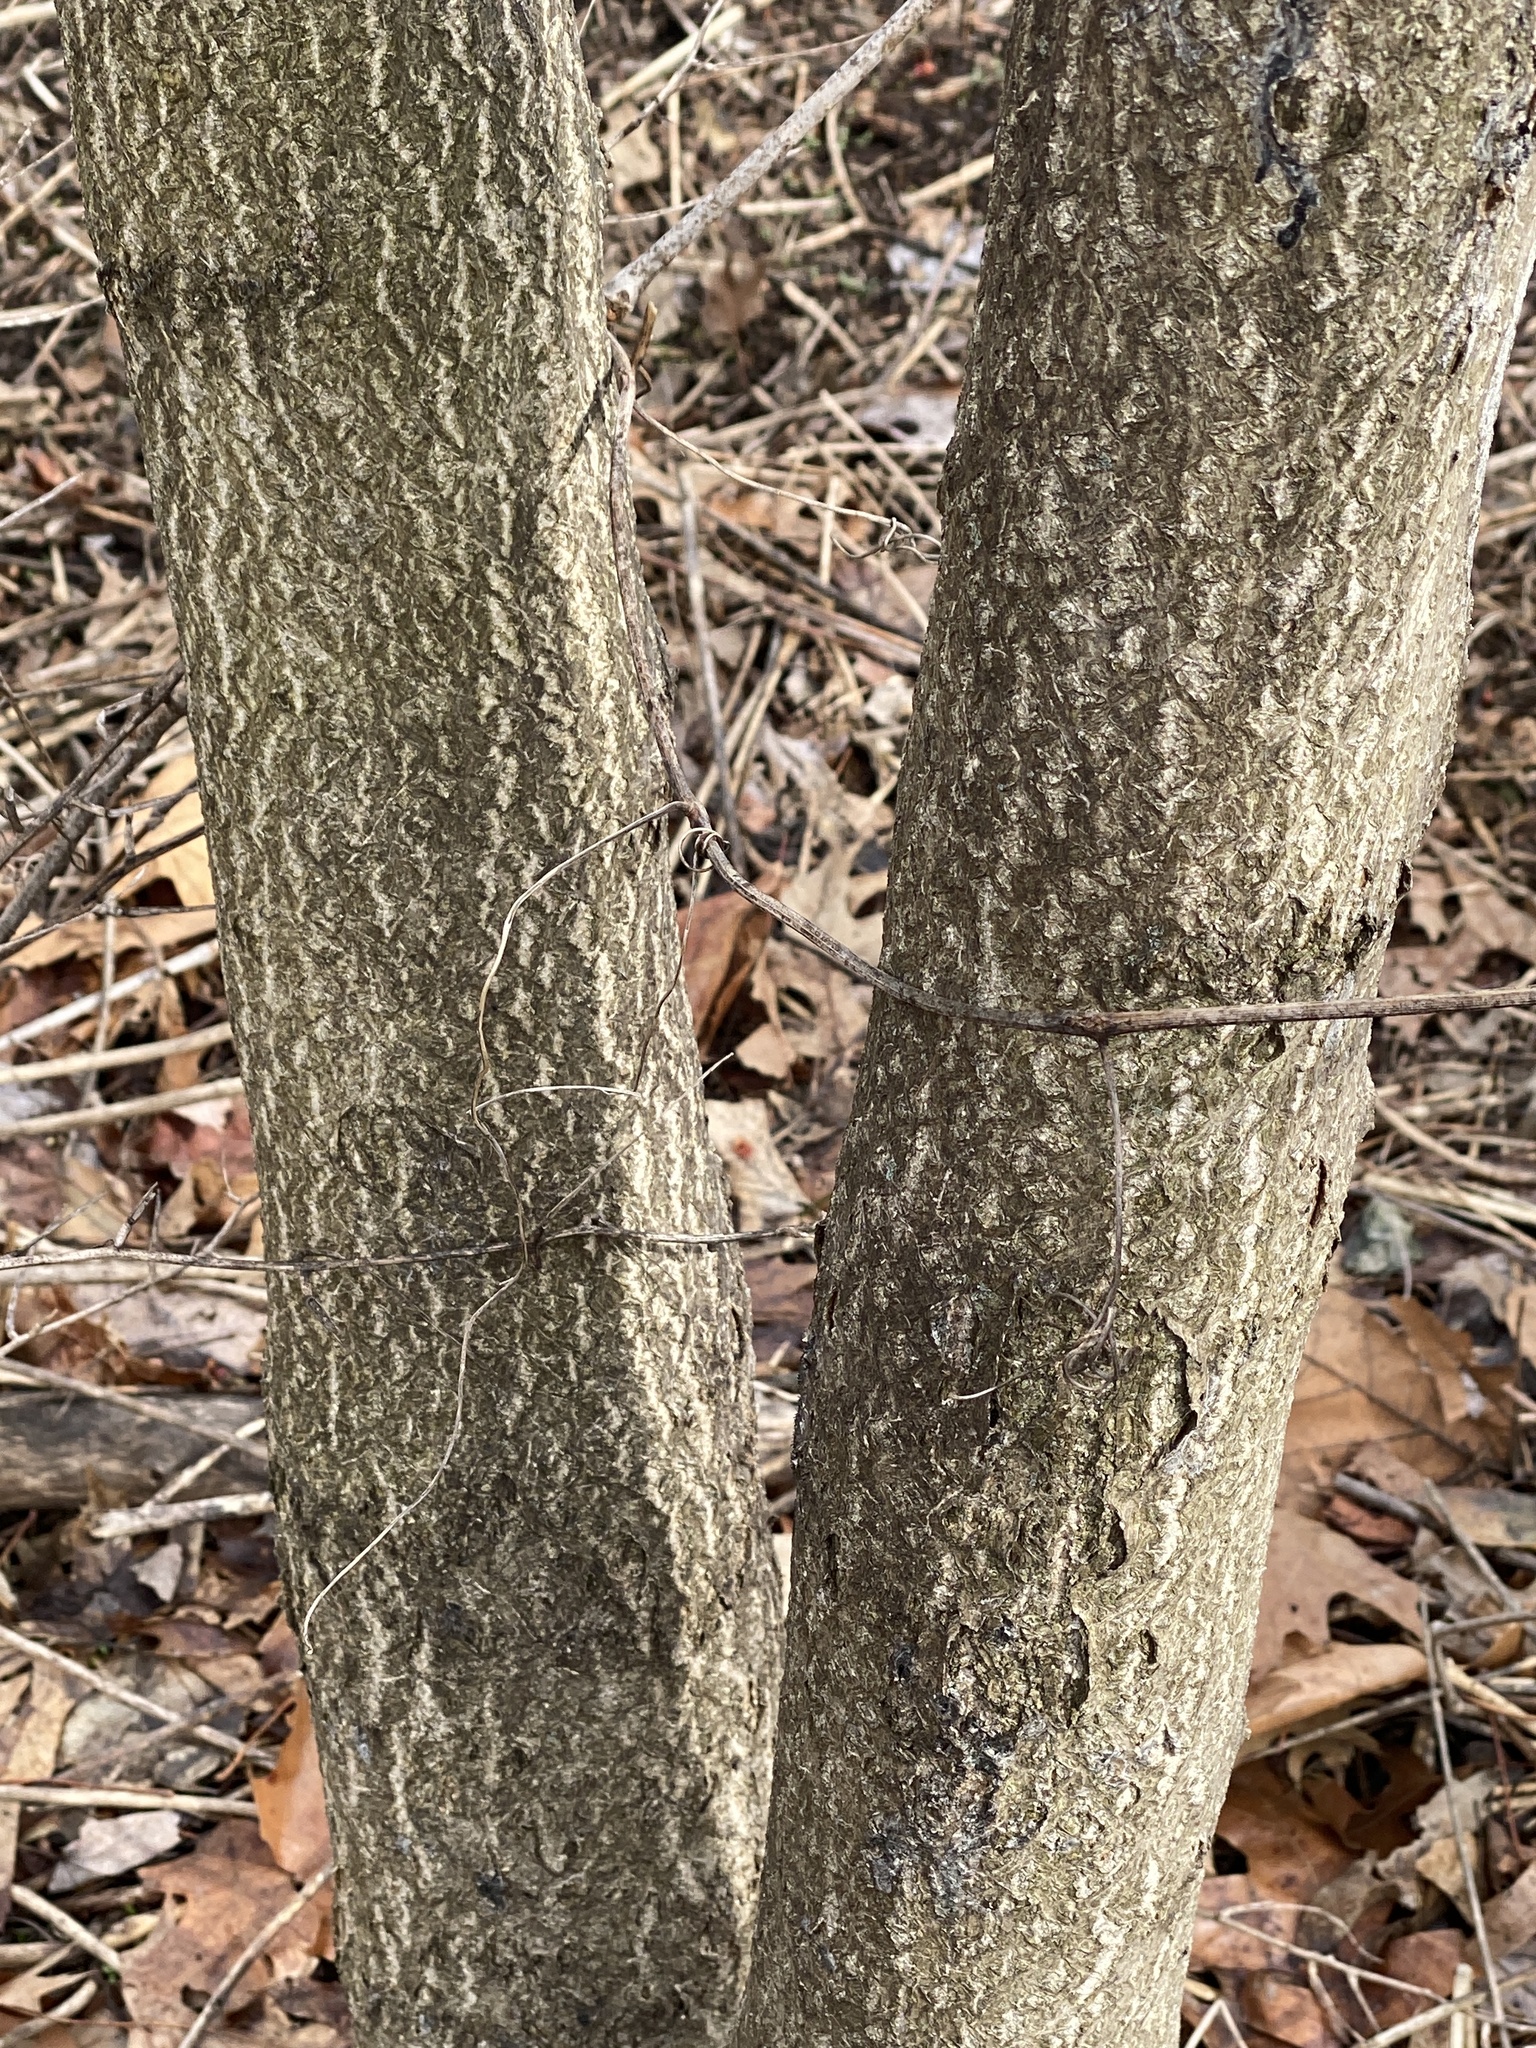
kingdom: Plantae
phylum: Tracheophyta
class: Magnoliopsida
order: Sapindales
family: Simaroubaceae
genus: Ailanthus
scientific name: Ailanthus altissima
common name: Tree-of-heaven
